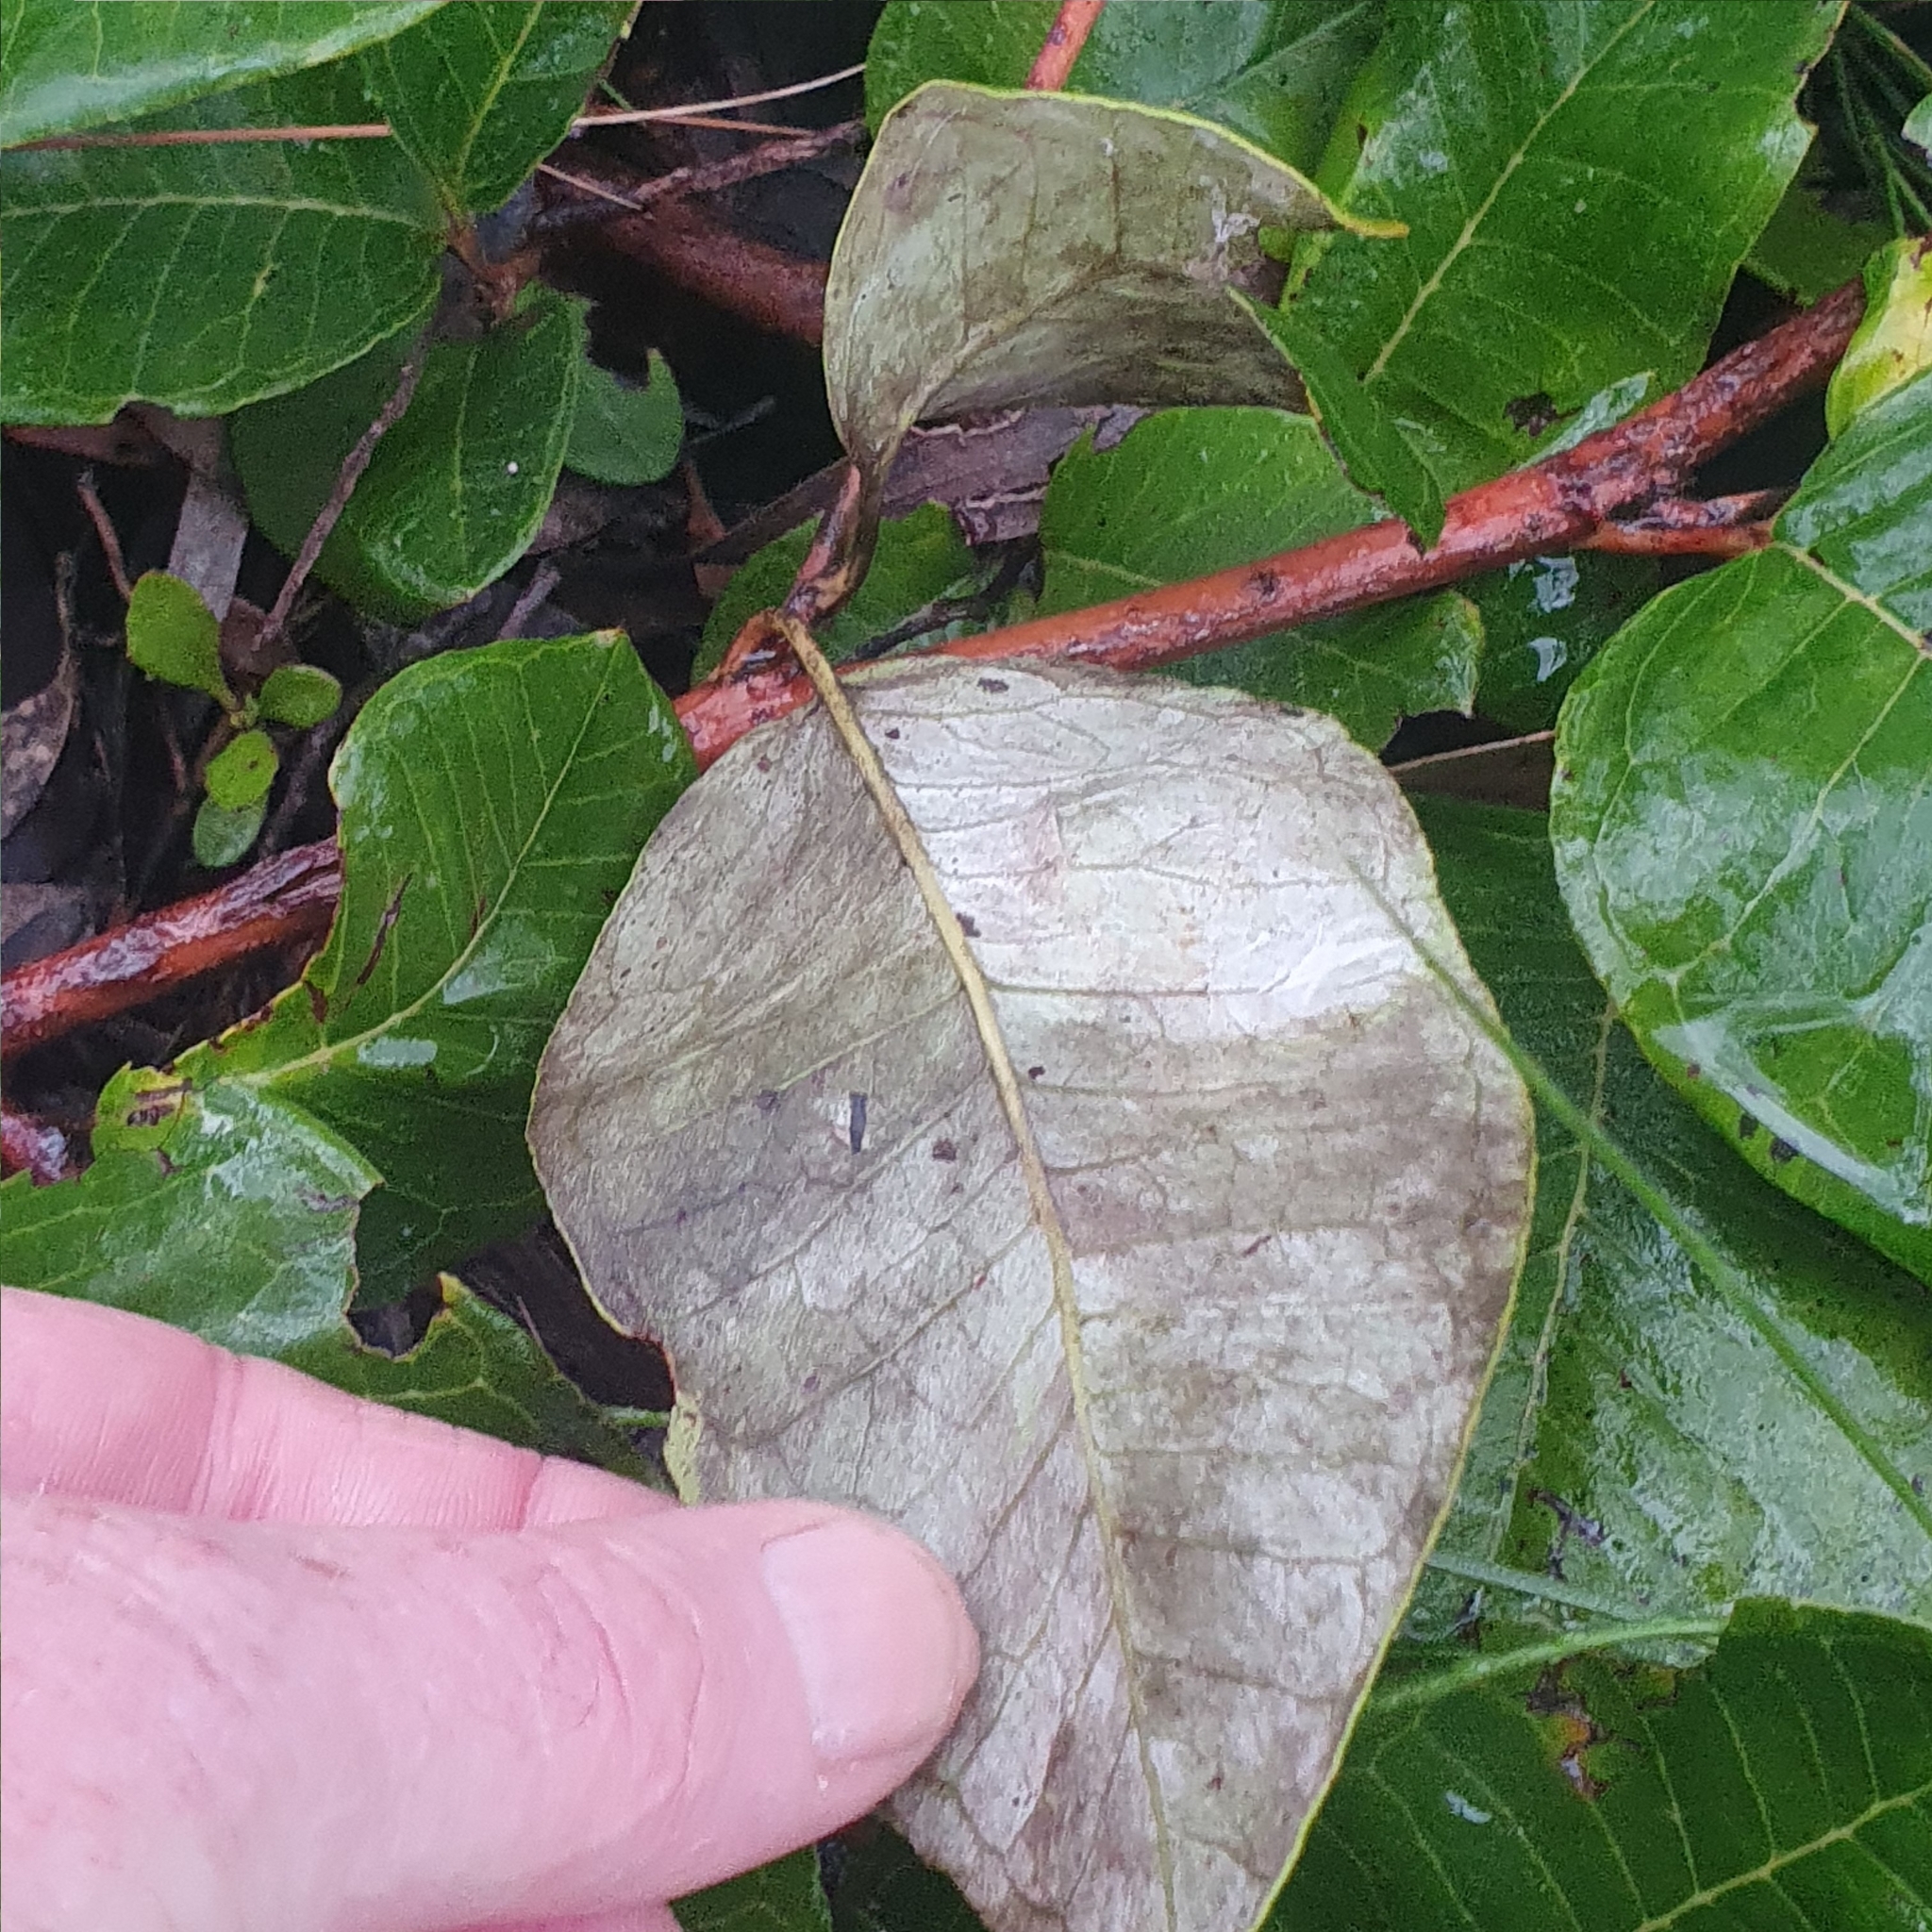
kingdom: Plantae
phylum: Tracheophyta
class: Magnoliopsida
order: Proteales
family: Proteaceae
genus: Grevillea
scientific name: Grevillea laurifolia
